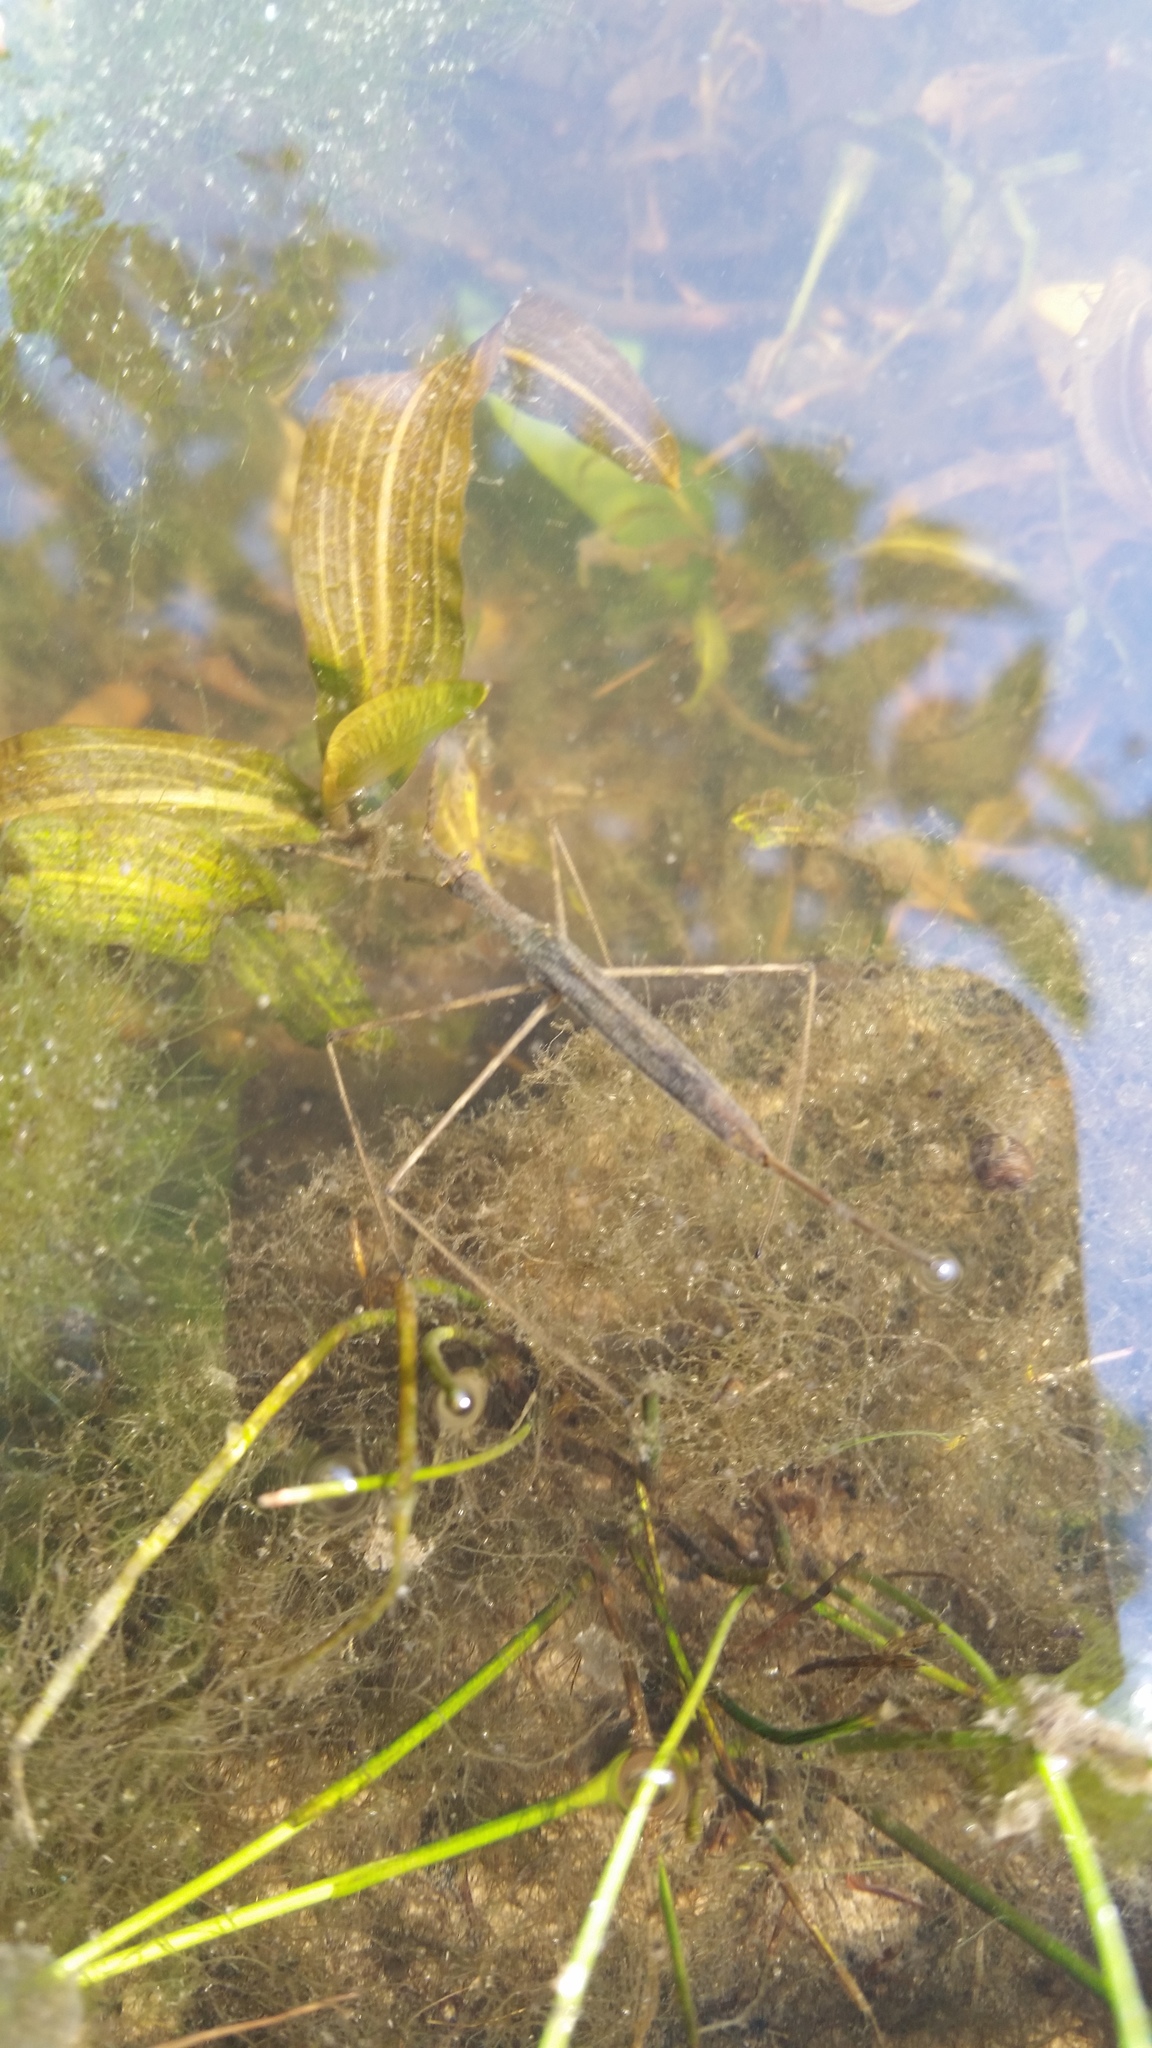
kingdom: Animalia
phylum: Arthropoda
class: Insecta
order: Hemiptera
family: Nepidae
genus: Ranatra
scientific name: Ranatra
